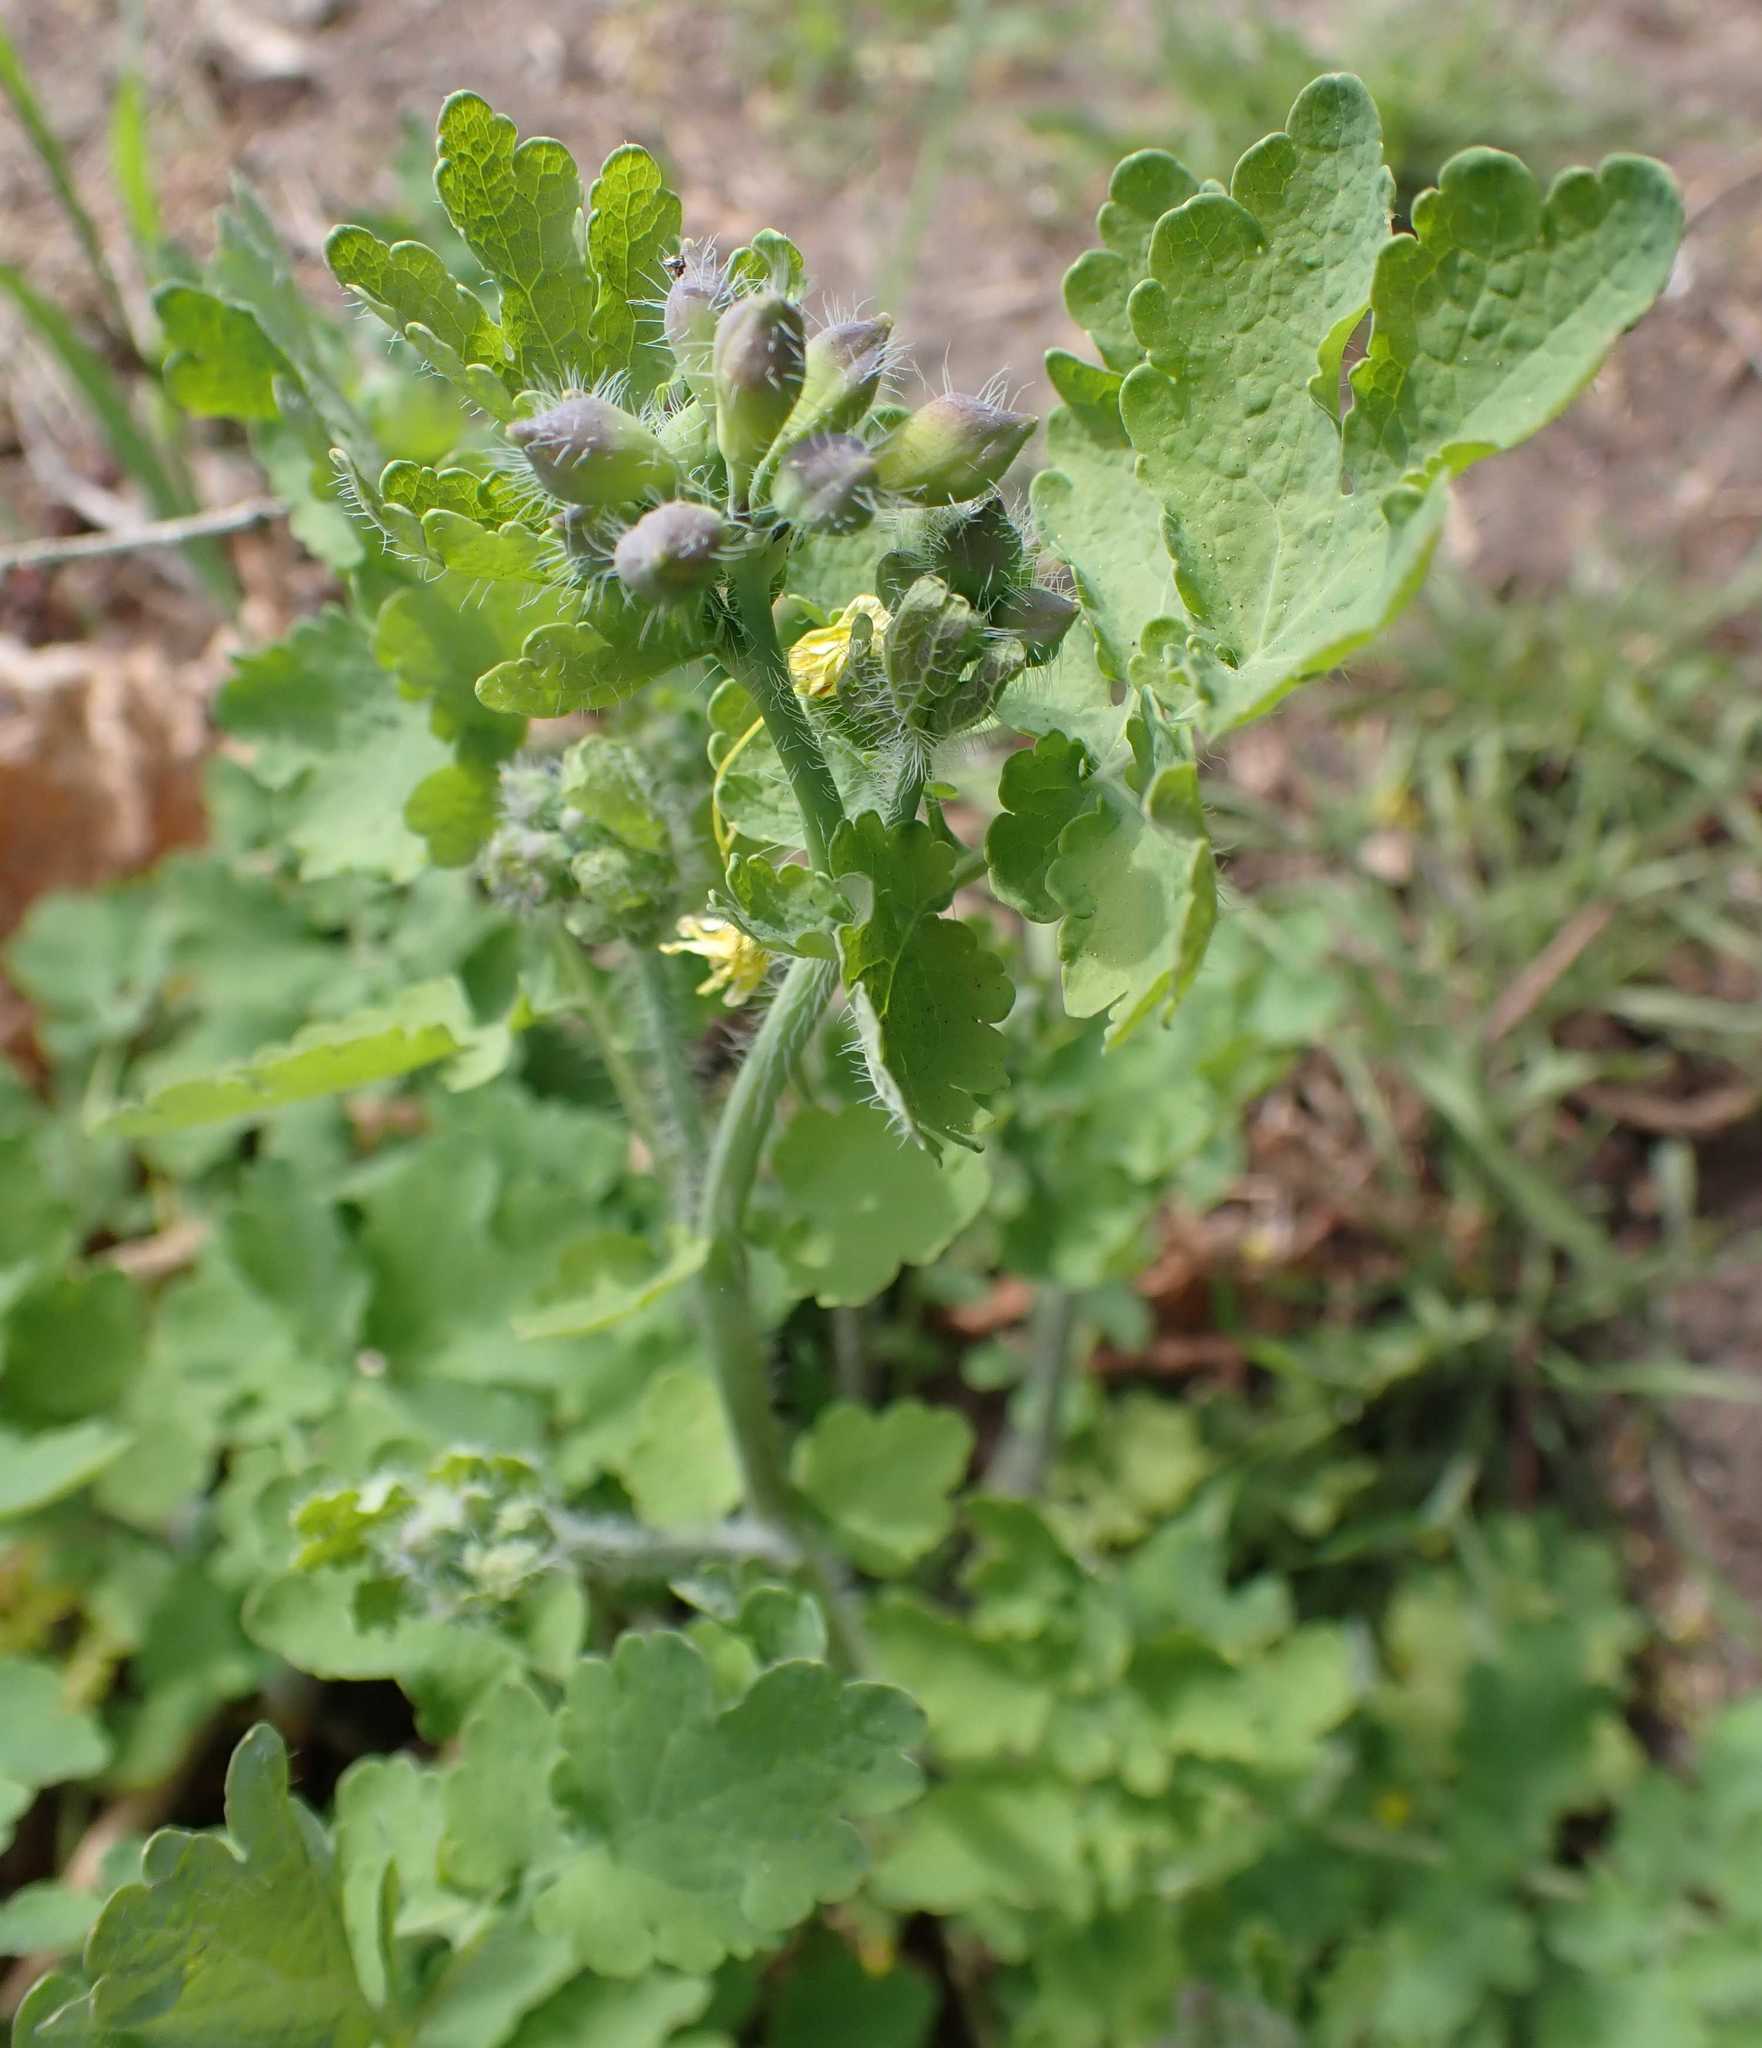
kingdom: Plantae
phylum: Tracheophyta
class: Magnoliopsida
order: Ranunculales
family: Papaveraceae
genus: Chelidonium
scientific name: Chelidonium majus
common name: Greater celandine
